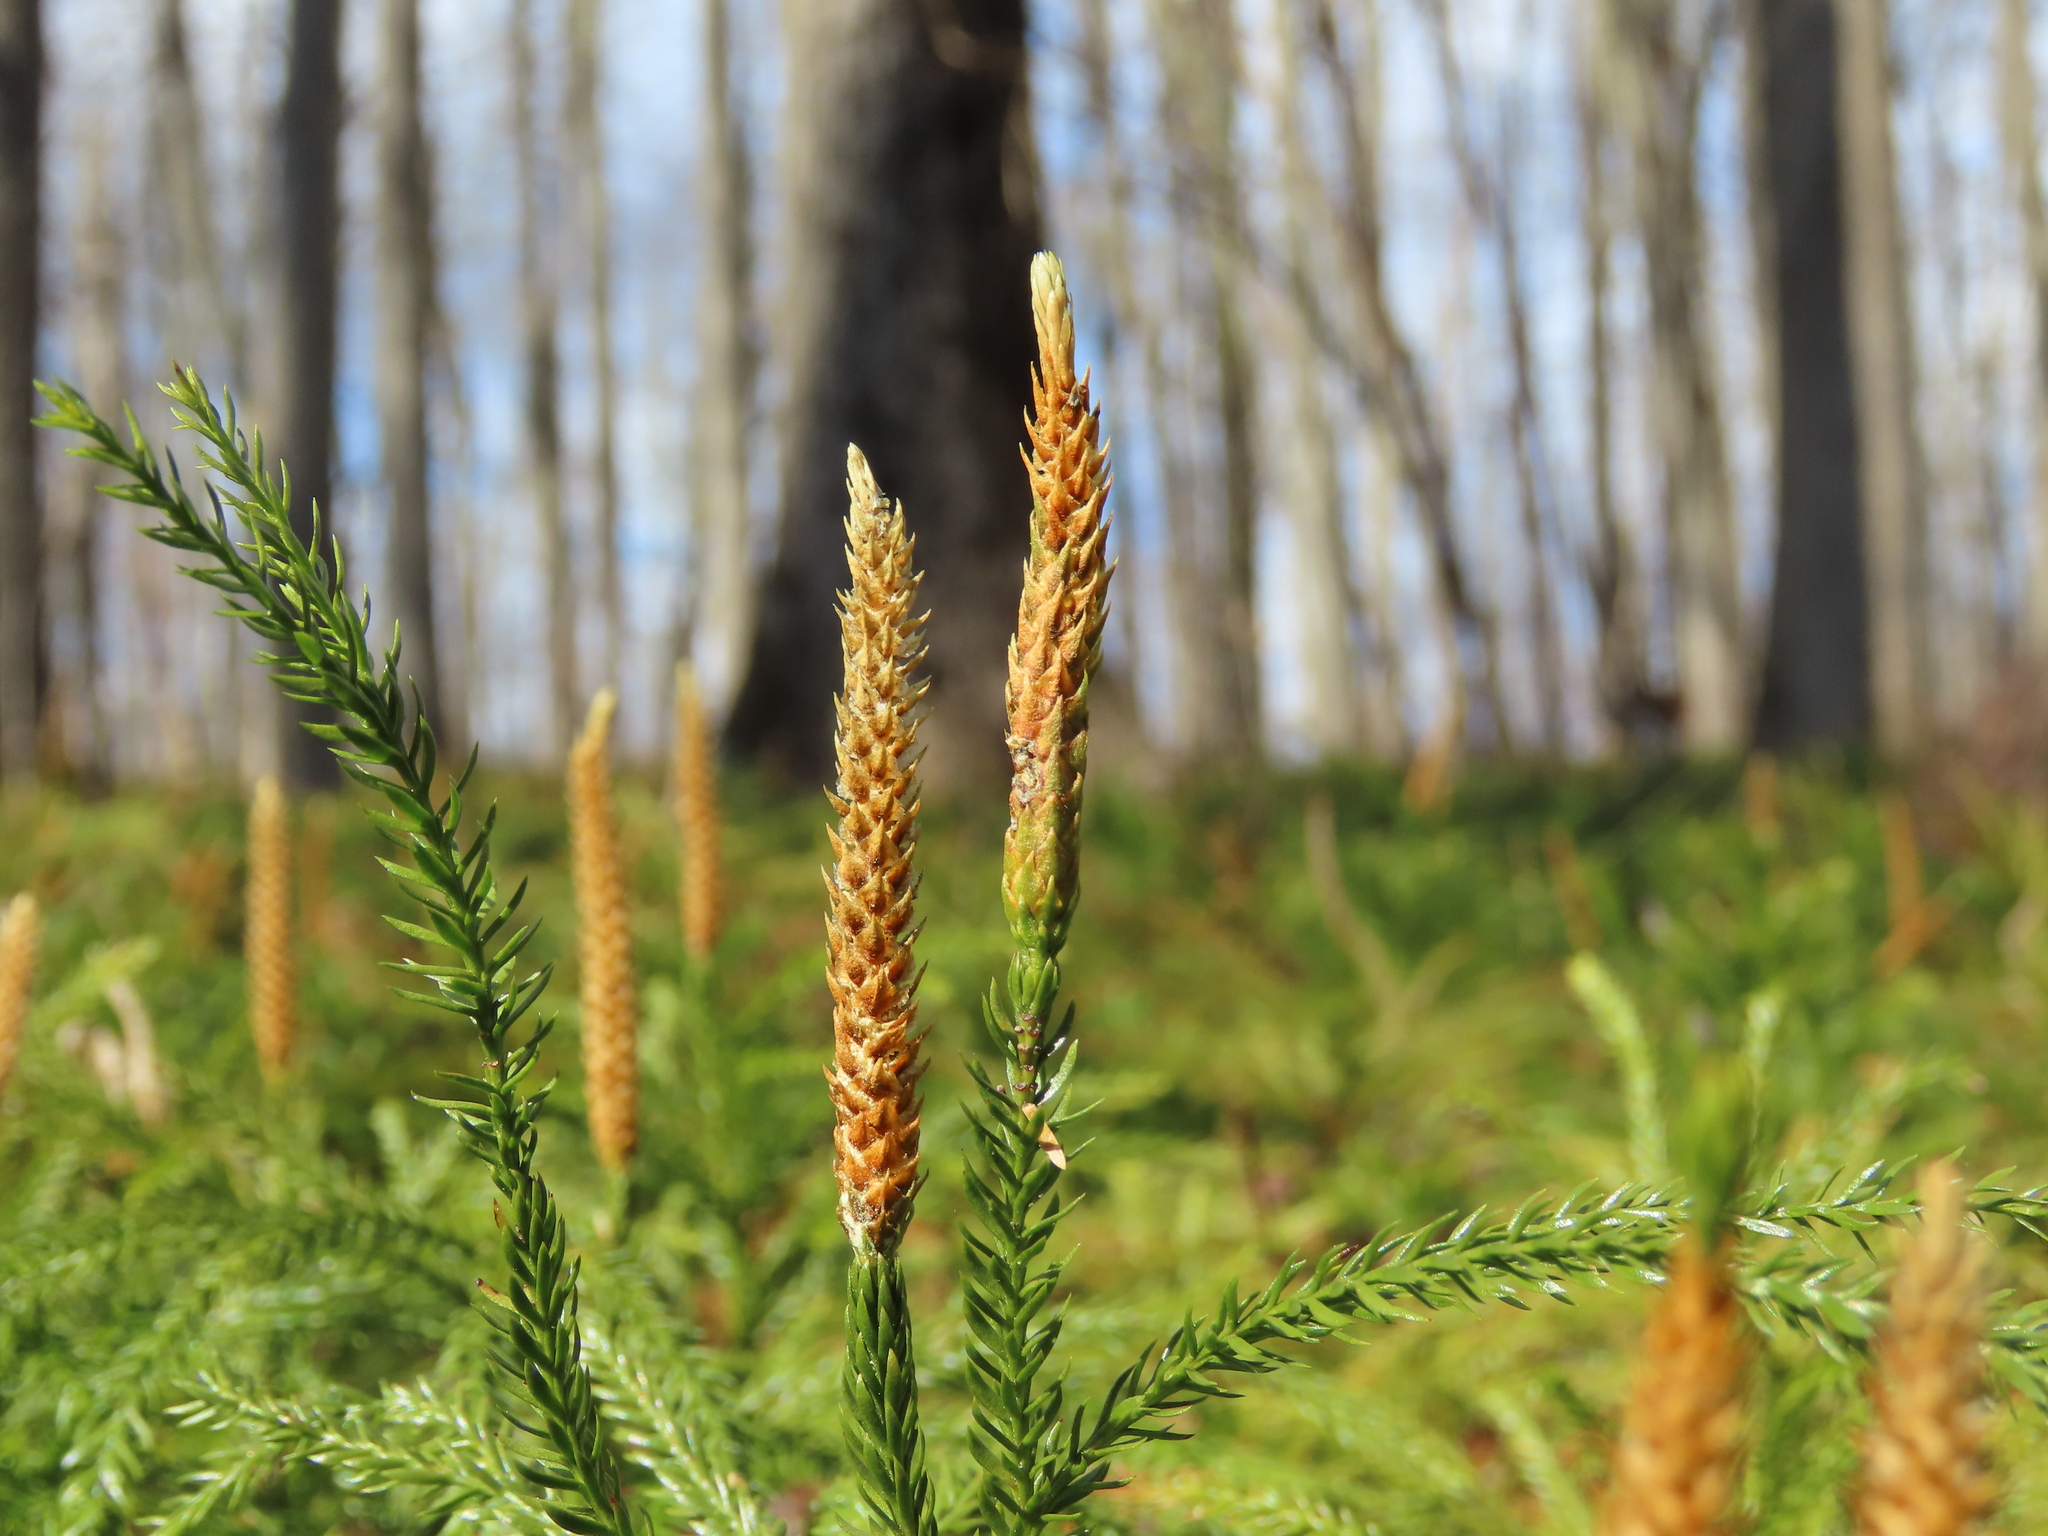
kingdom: Plantae
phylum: Tracheophyta
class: Lycopodiopsida
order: Lycopodiales
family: Lycopodiaceae
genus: Dendrolycopodium
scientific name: Dendrolycopodium obscurum
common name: Common ground-pine
